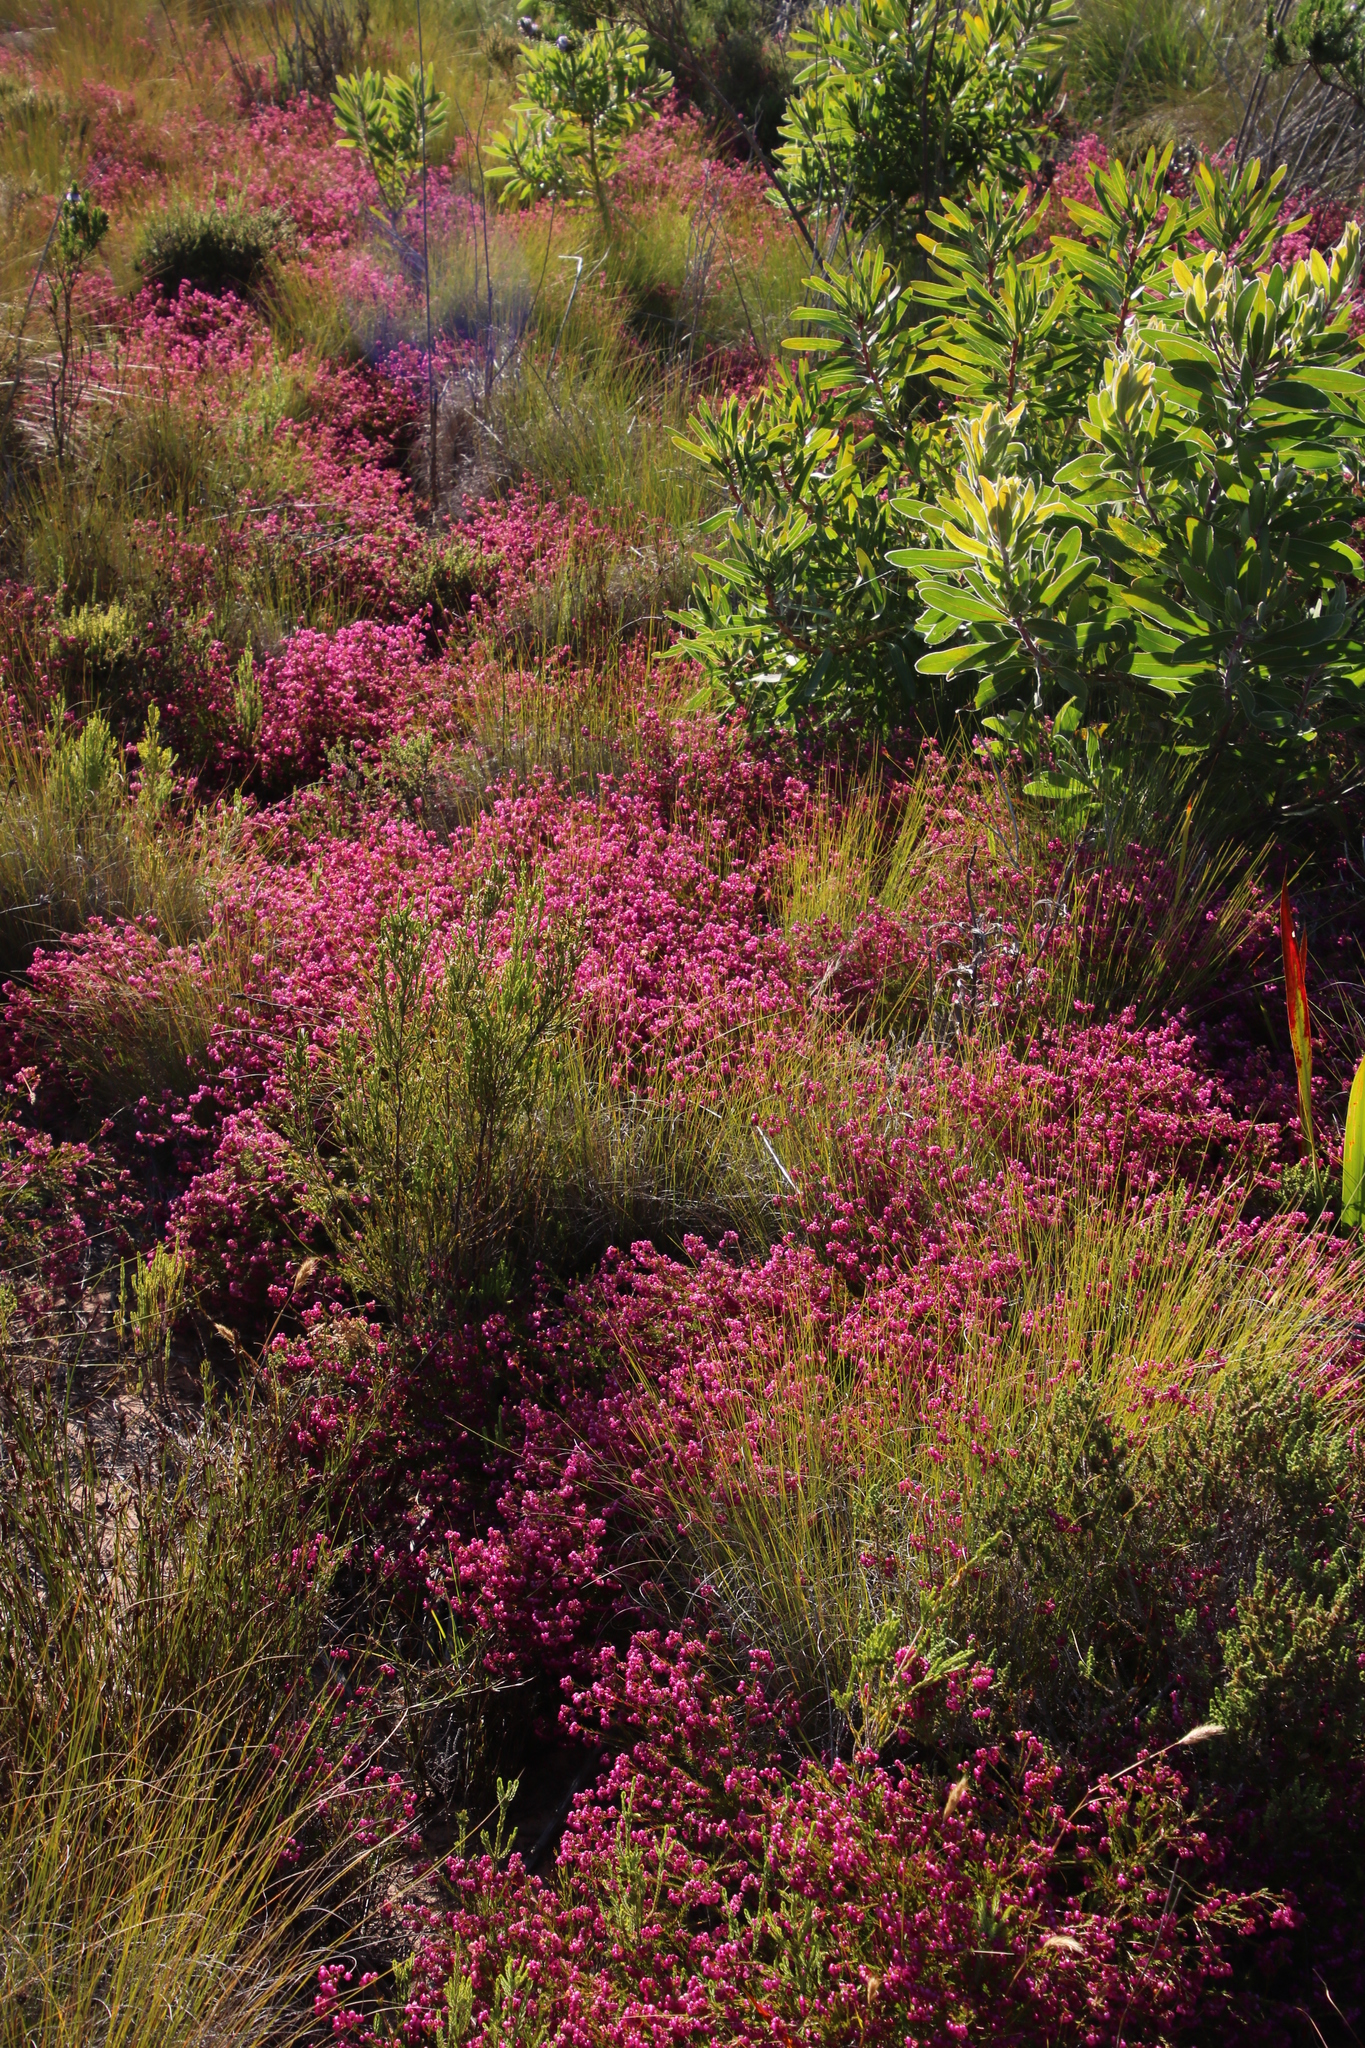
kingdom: Plantae
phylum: Tracheophyta
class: Magnoliopsida
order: Ericales
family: Ericaceae
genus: Erica
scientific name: Erica multumbellifera
